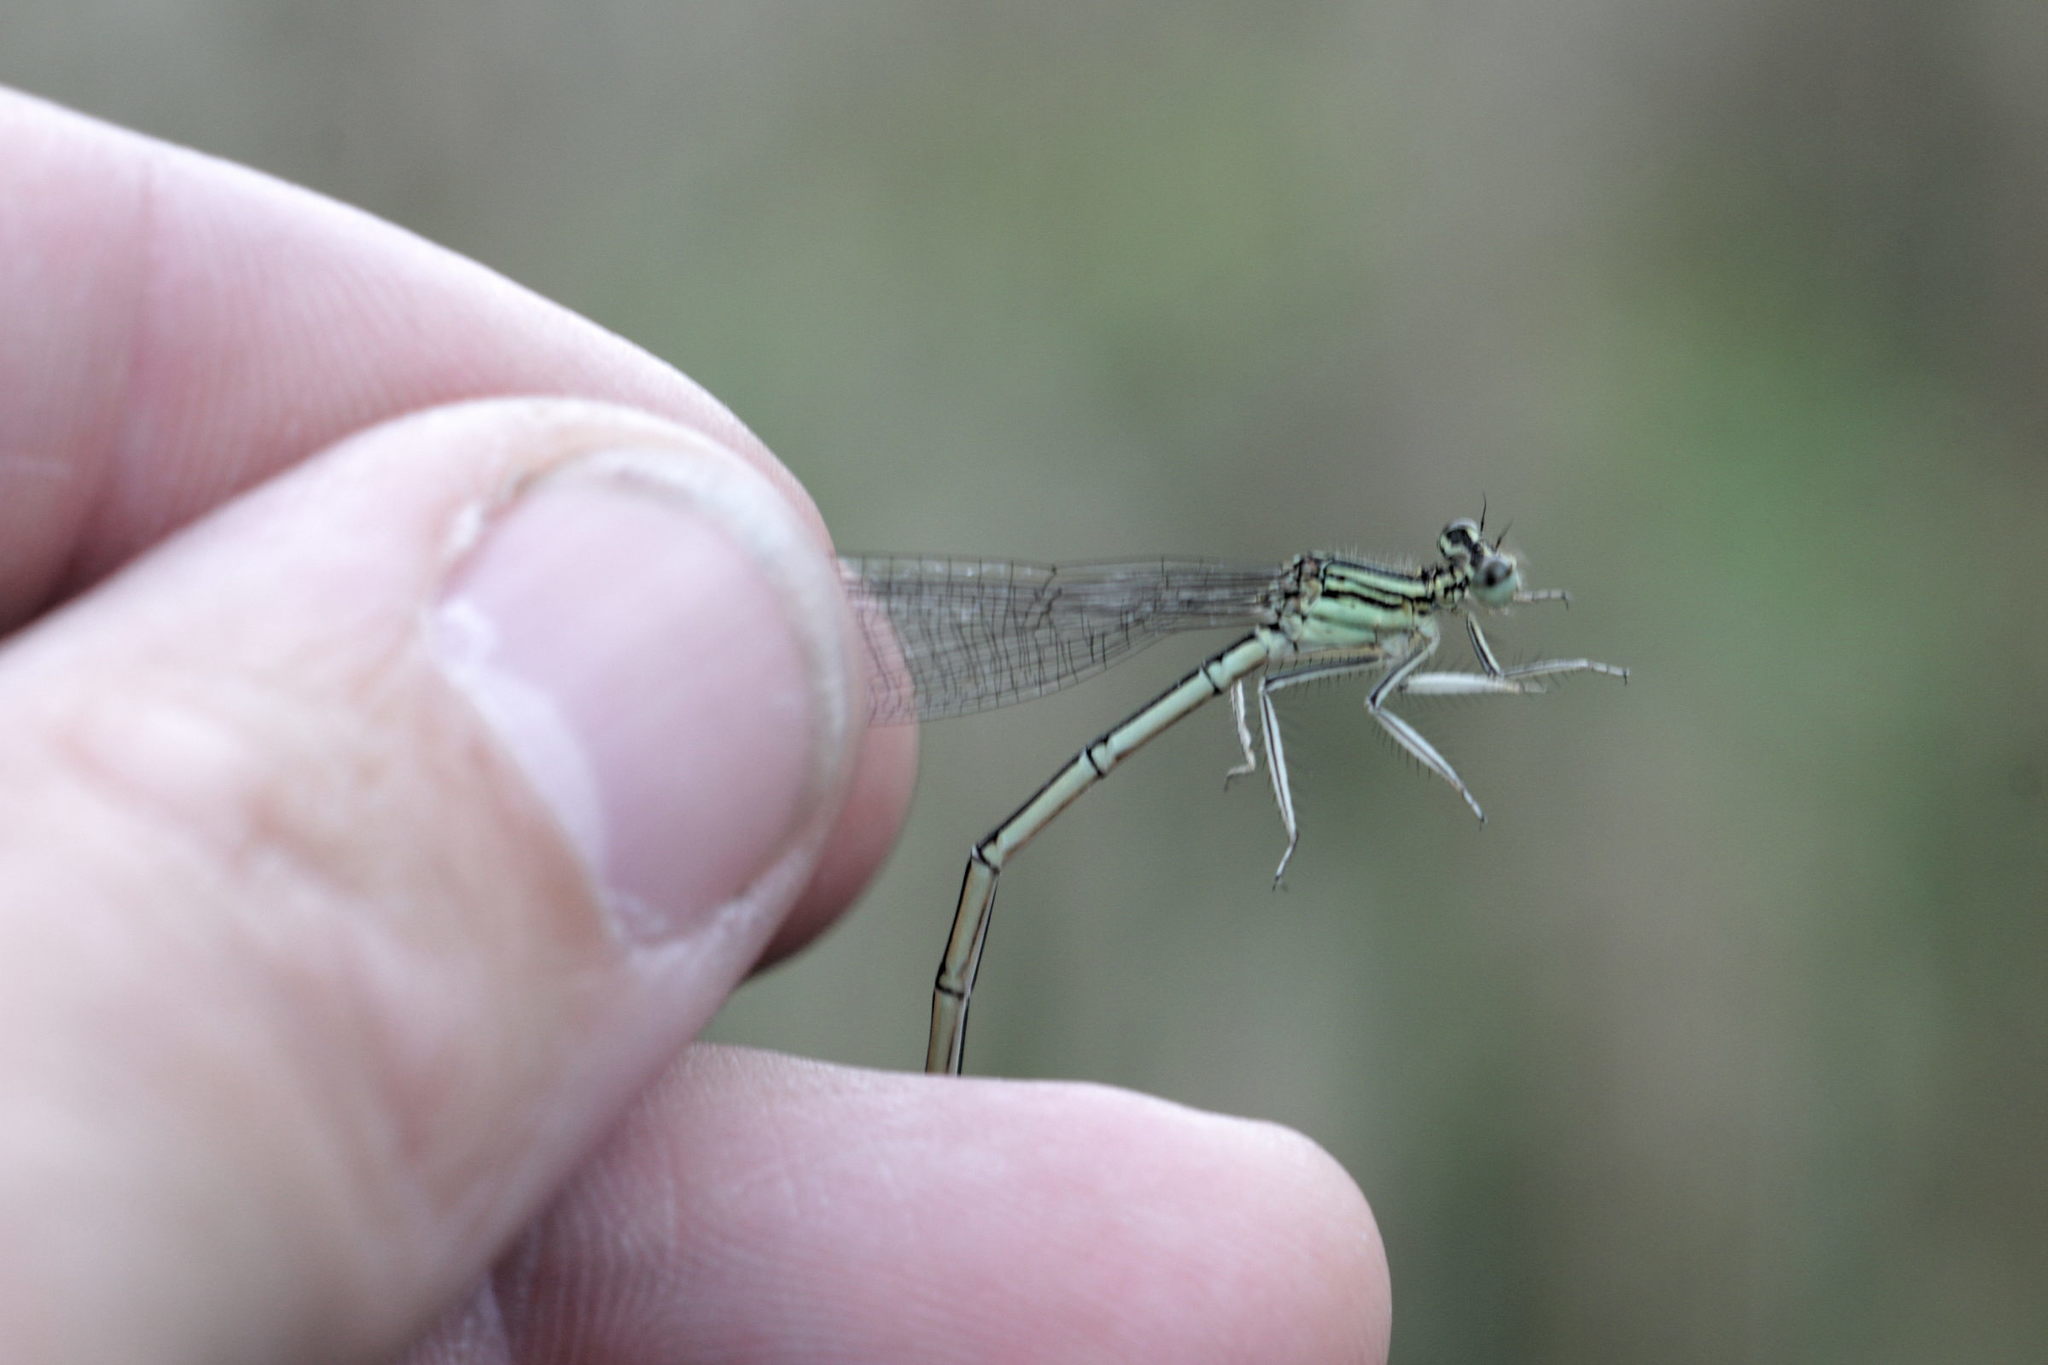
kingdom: Animalia
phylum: Arthropoda
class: Insecta
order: Odonata
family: Platycnemididae
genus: Platycnemis
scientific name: Platycnemis pennipes
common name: White-legged damselfly
